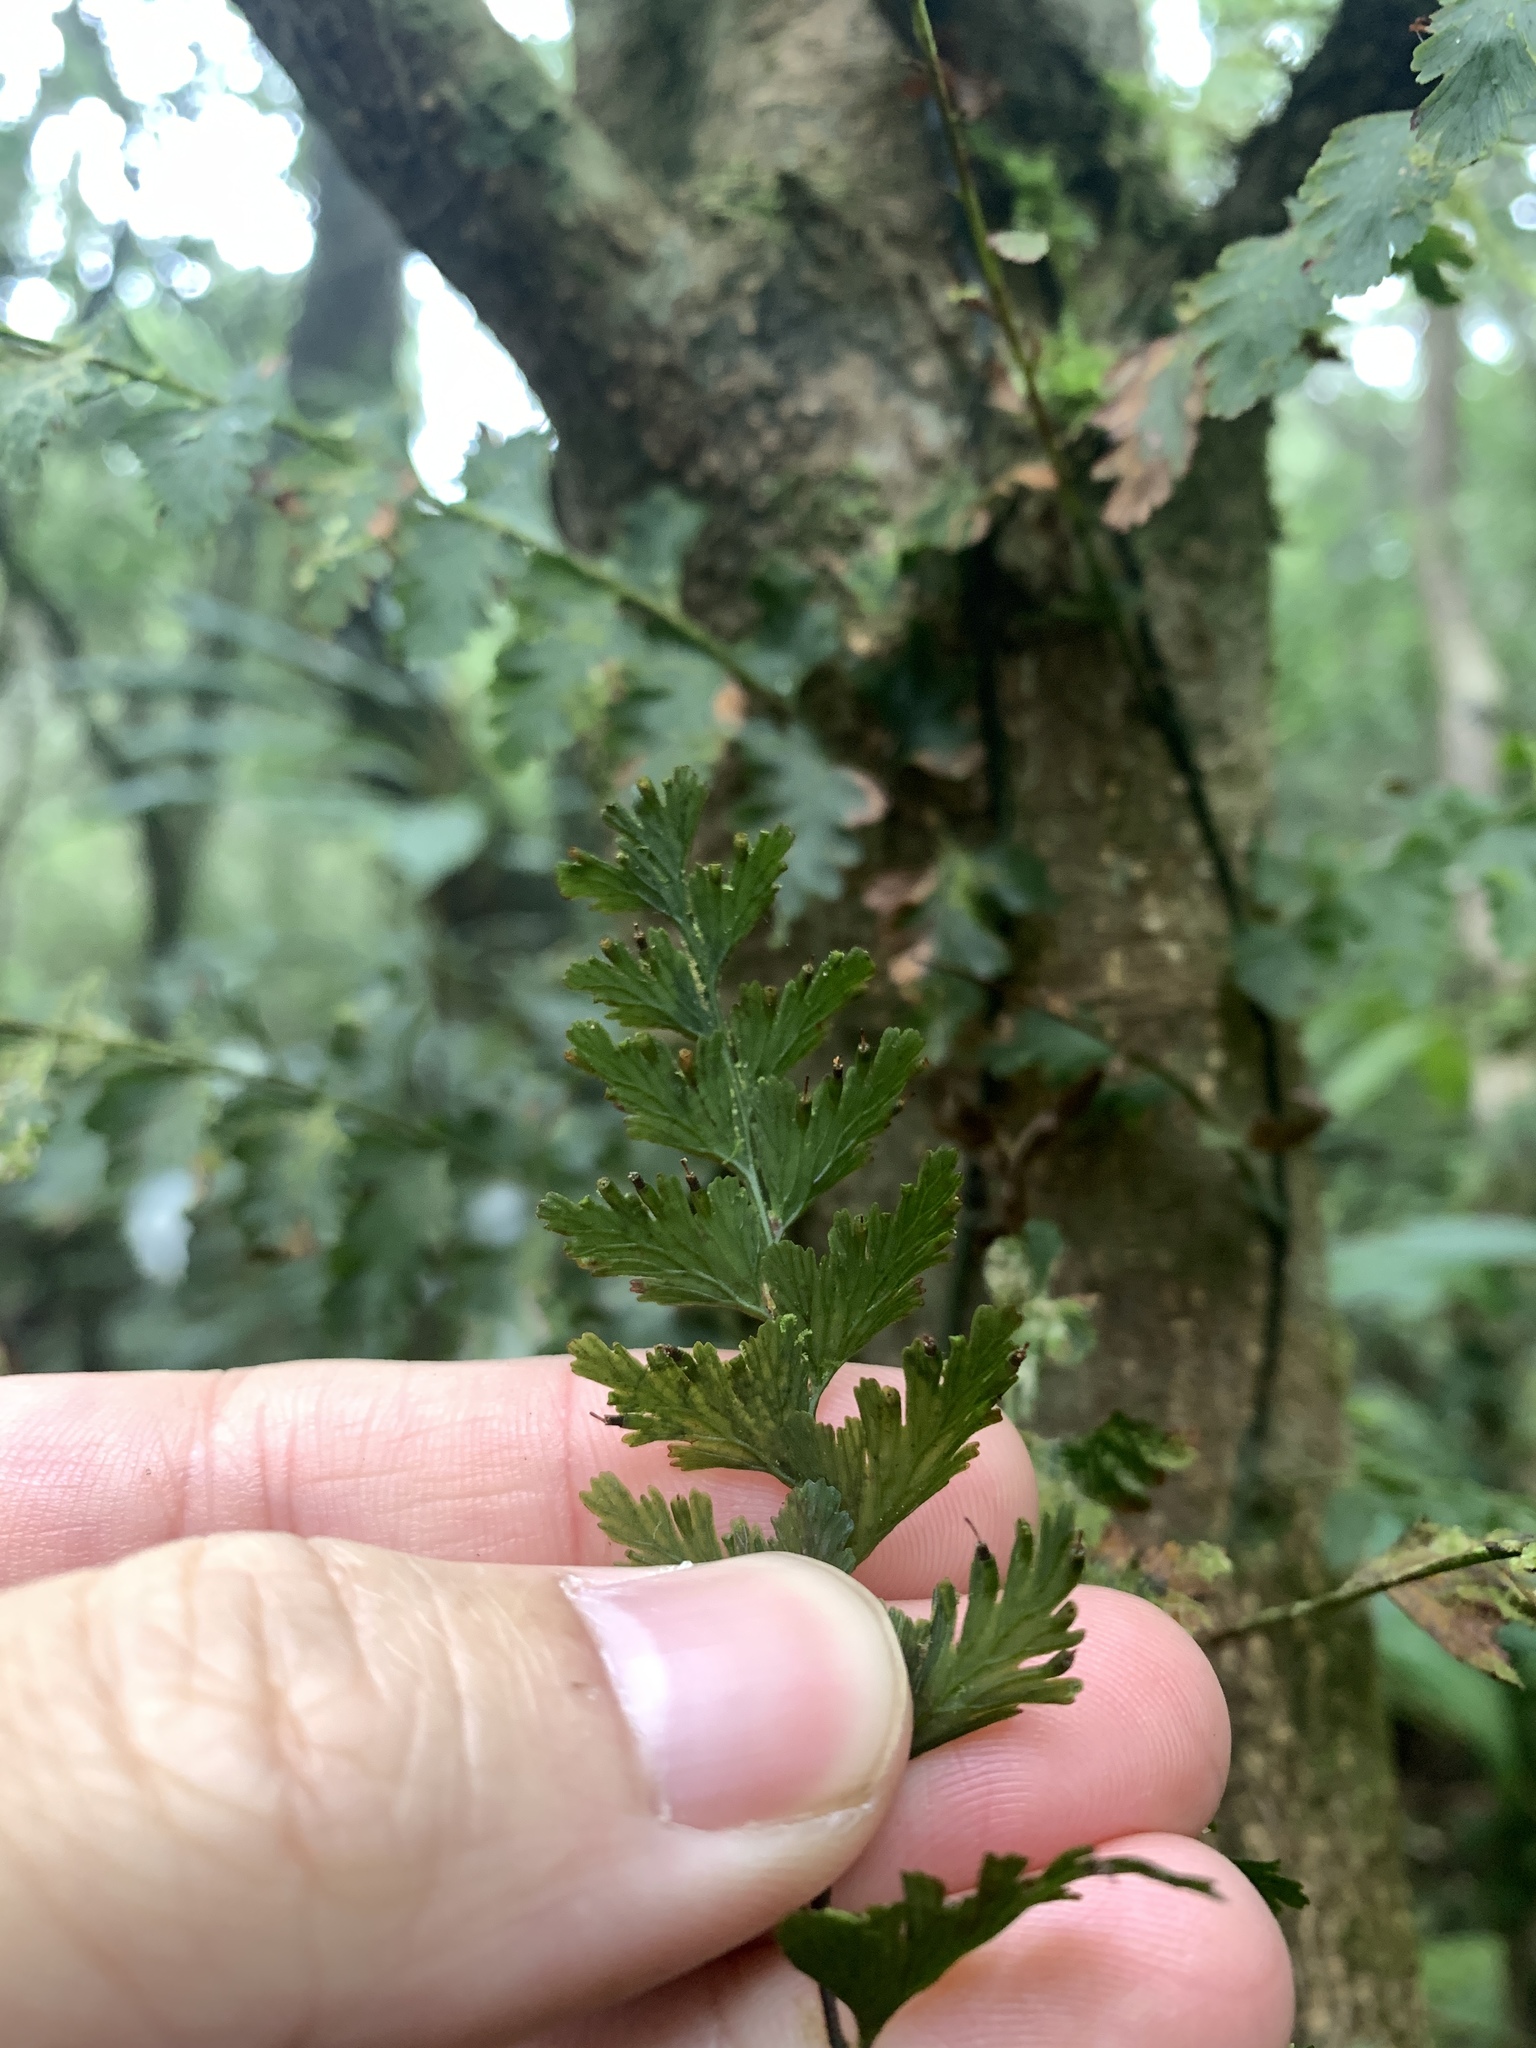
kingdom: Plantae
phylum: Tracheophyta
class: Polypodiopsida
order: Hymenophyllales
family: Hymenophyllaceae
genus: Vandenboschia
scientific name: Vandenboschia auriculata
